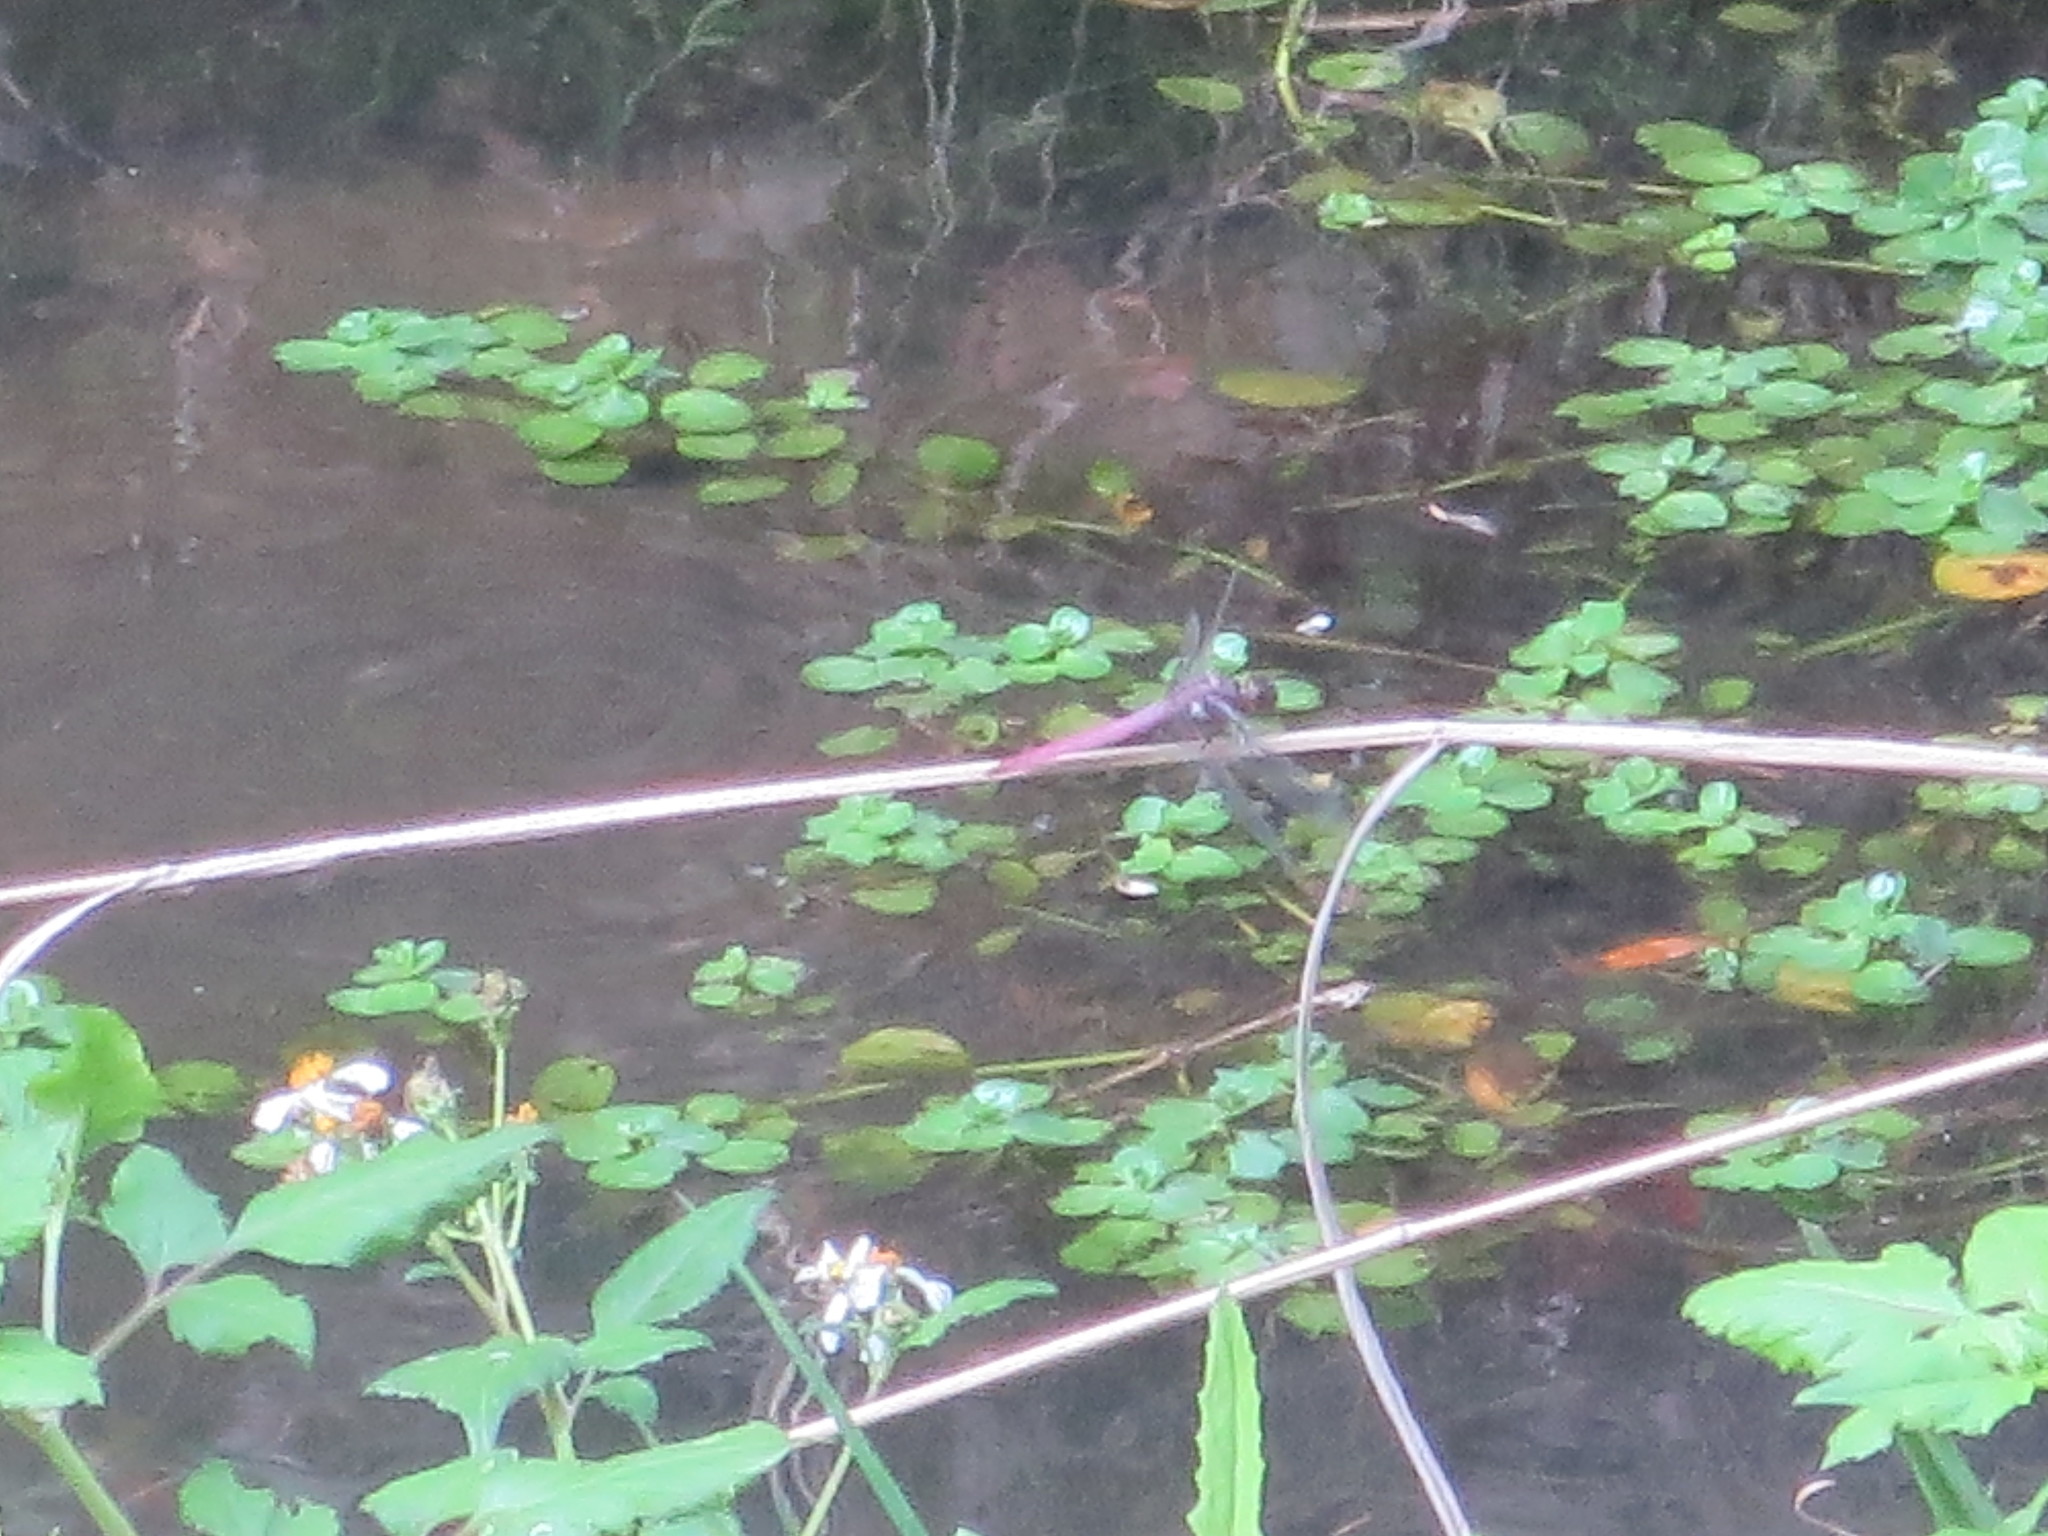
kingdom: Animalia
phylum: Arthropoda
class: Insecta
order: Odonata
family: Libellulidae
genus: Orthemis
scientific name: Orthemis ferruginea
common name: Roseate skimmer
